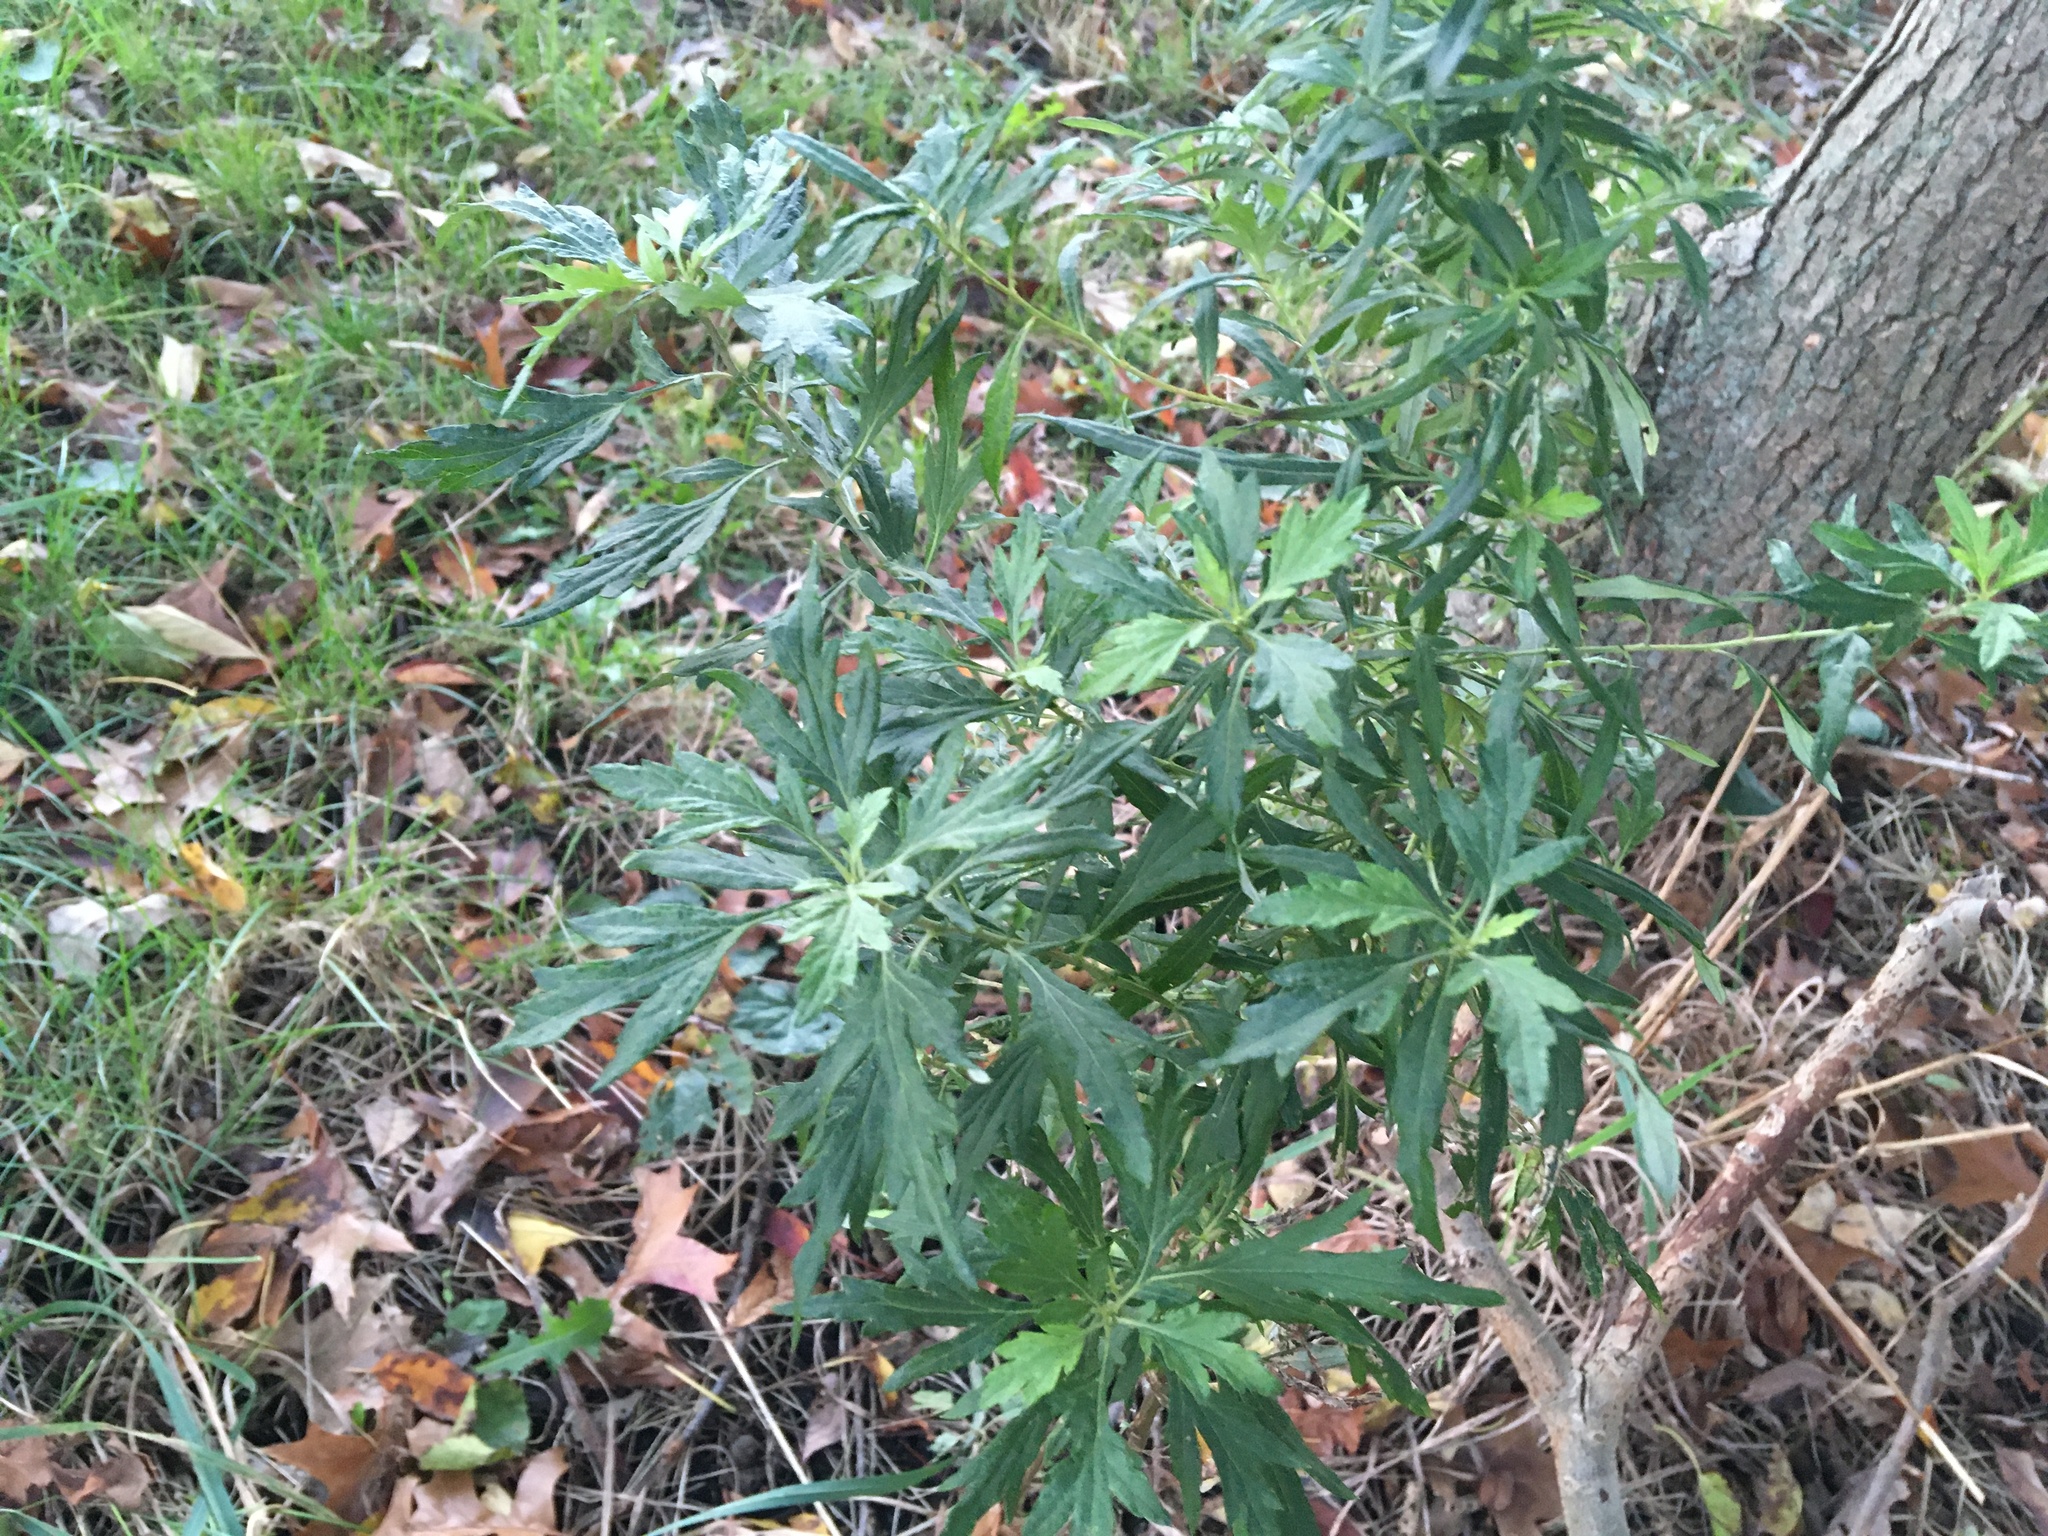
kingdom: Plantae
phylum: Tracheophyta
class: Magnoliopsida
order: Asterales
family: Asteraceae
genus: Artemisia
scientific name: Artemisia vulgaris
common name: Mugwort
